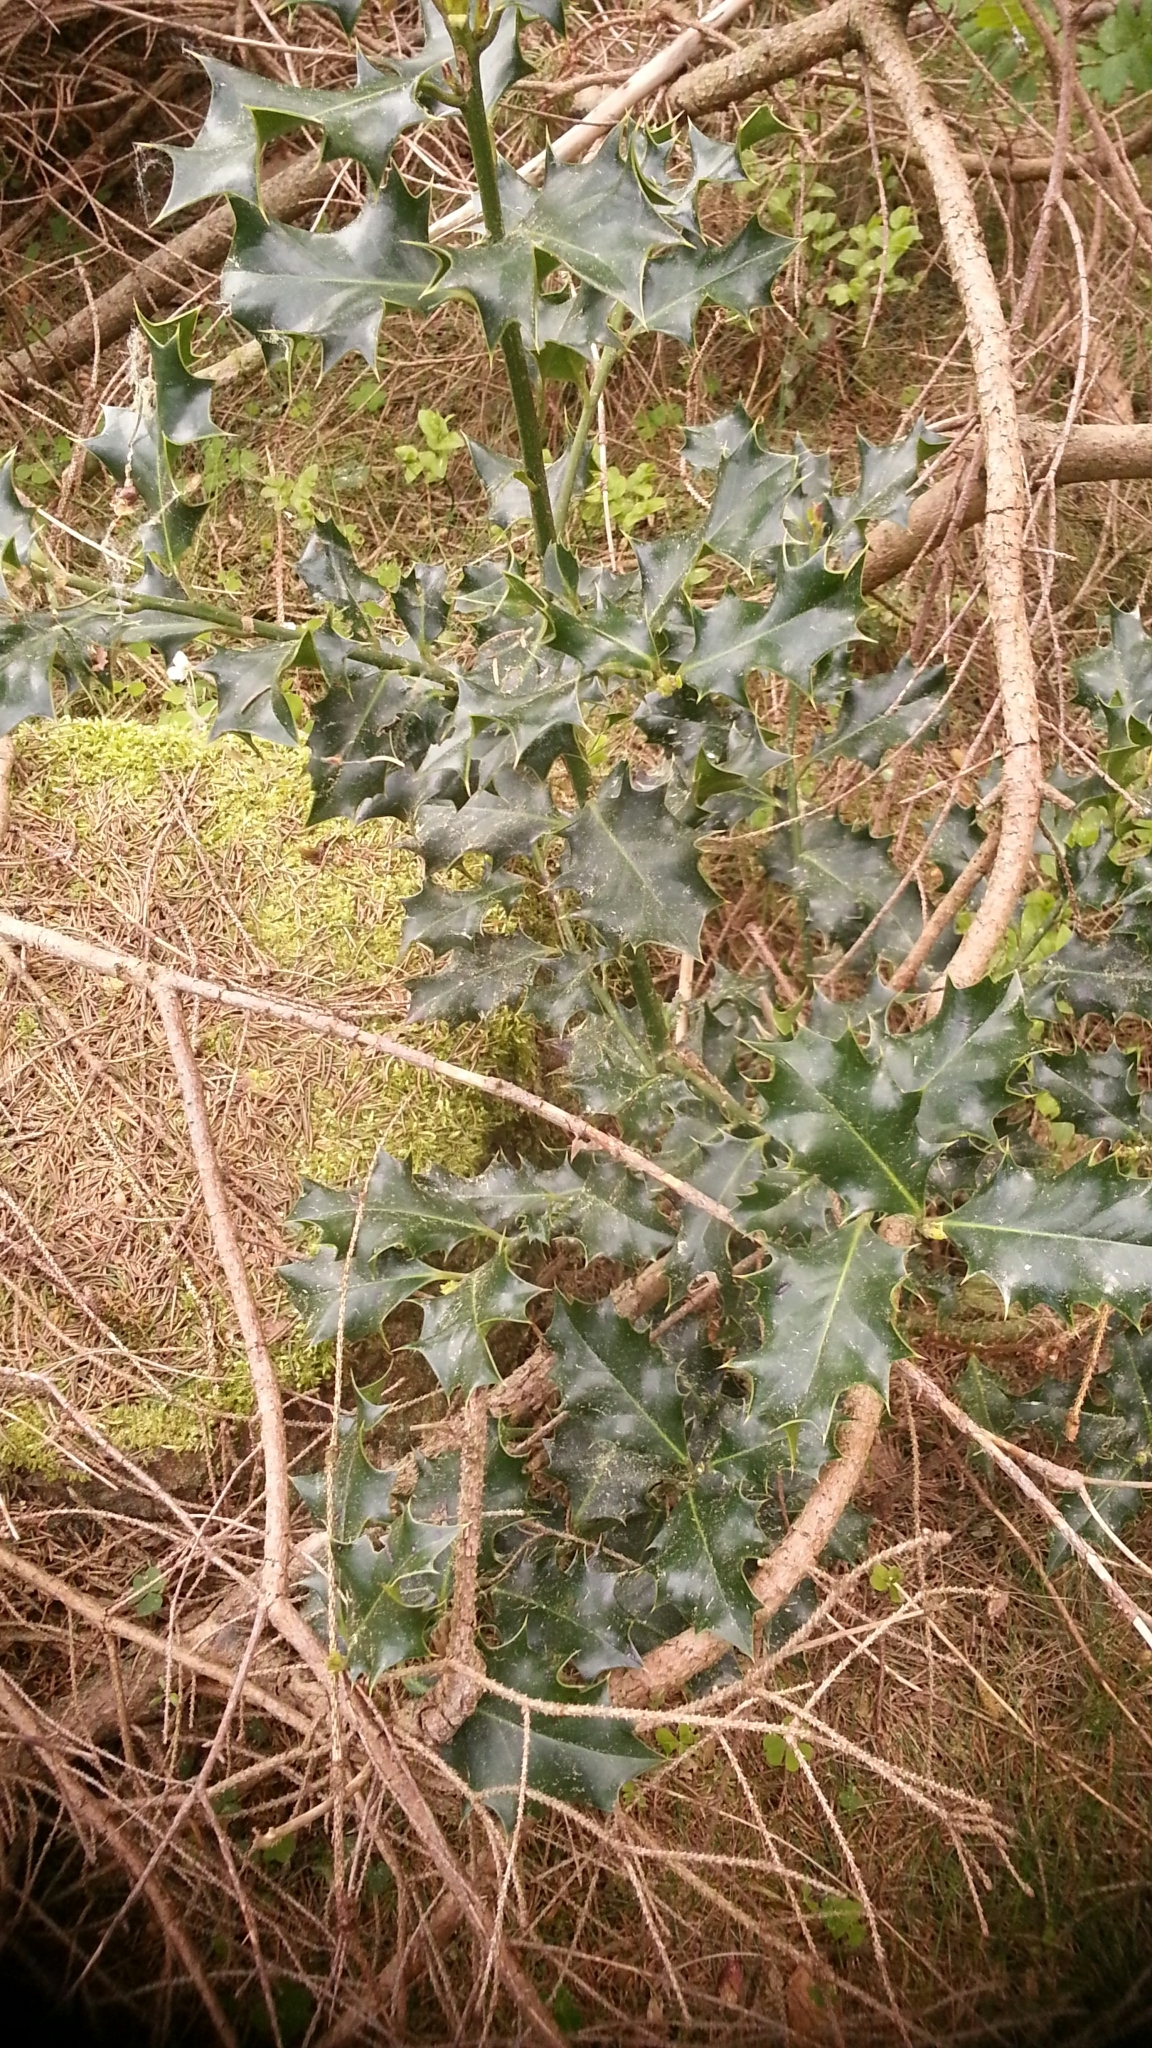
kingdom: Plantae
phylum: Tracheophyta
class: Magnoliopsida
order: Aquifoliales
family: Aquifoliaceae
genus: Ilex
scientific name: Ilex aquifolium
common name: English holly
